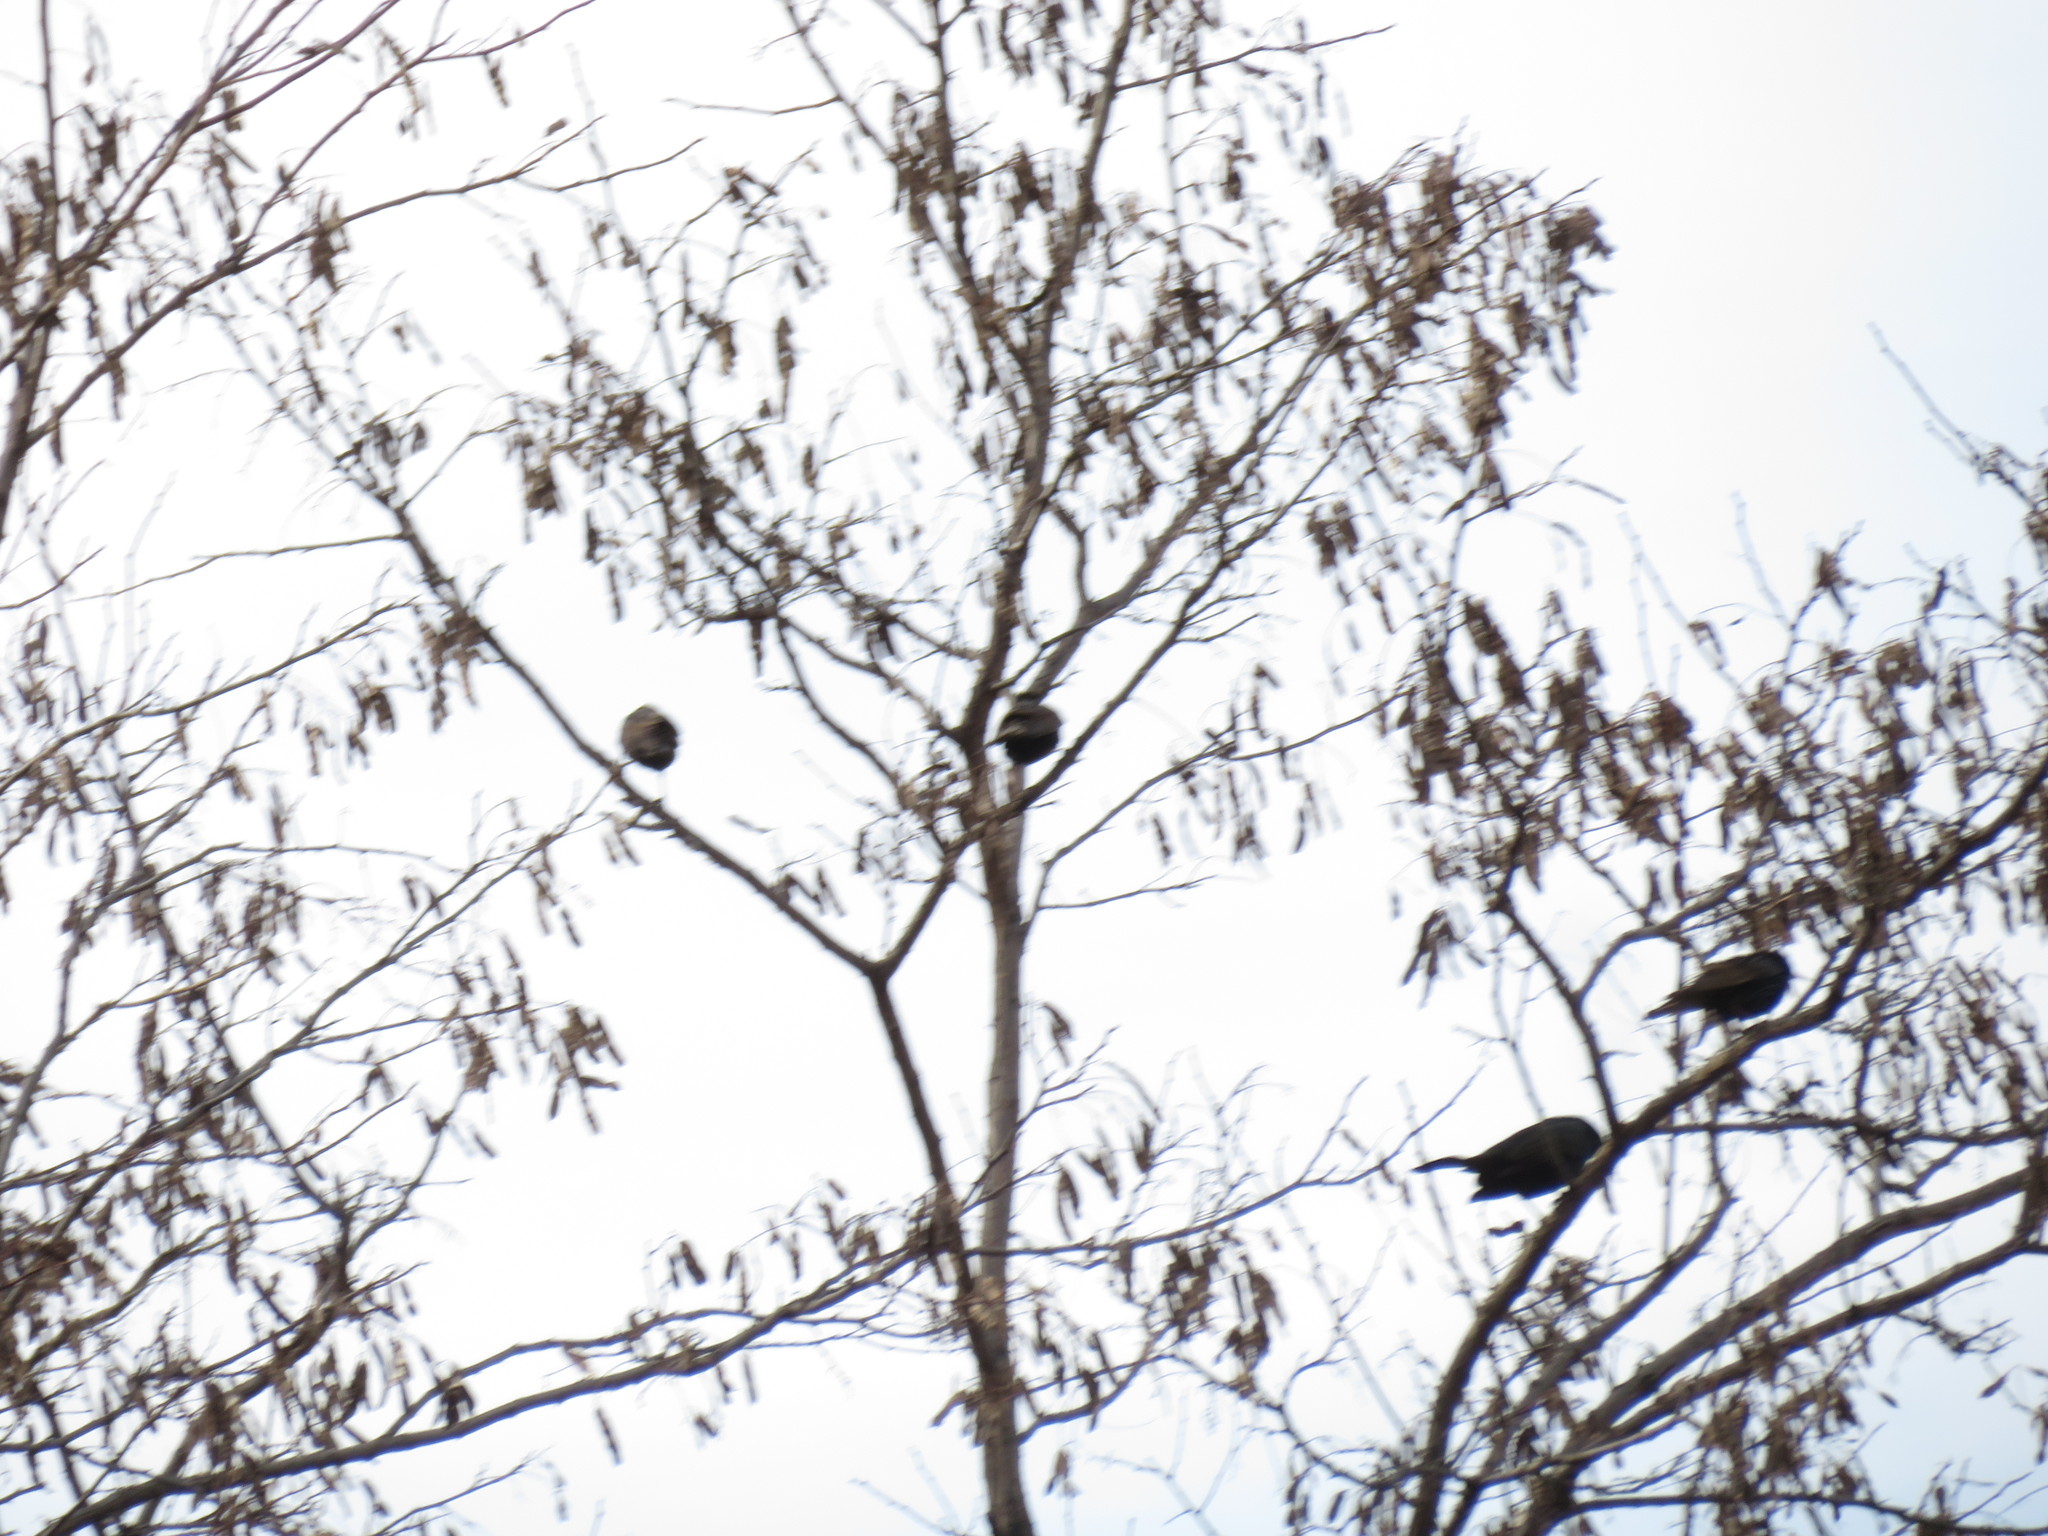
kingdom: Animalia
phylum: Chordata
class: Aves
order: Passeriformes
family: Sturnidae
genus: Sturnus
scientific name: Sturnus vulgaris
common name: Common starling
